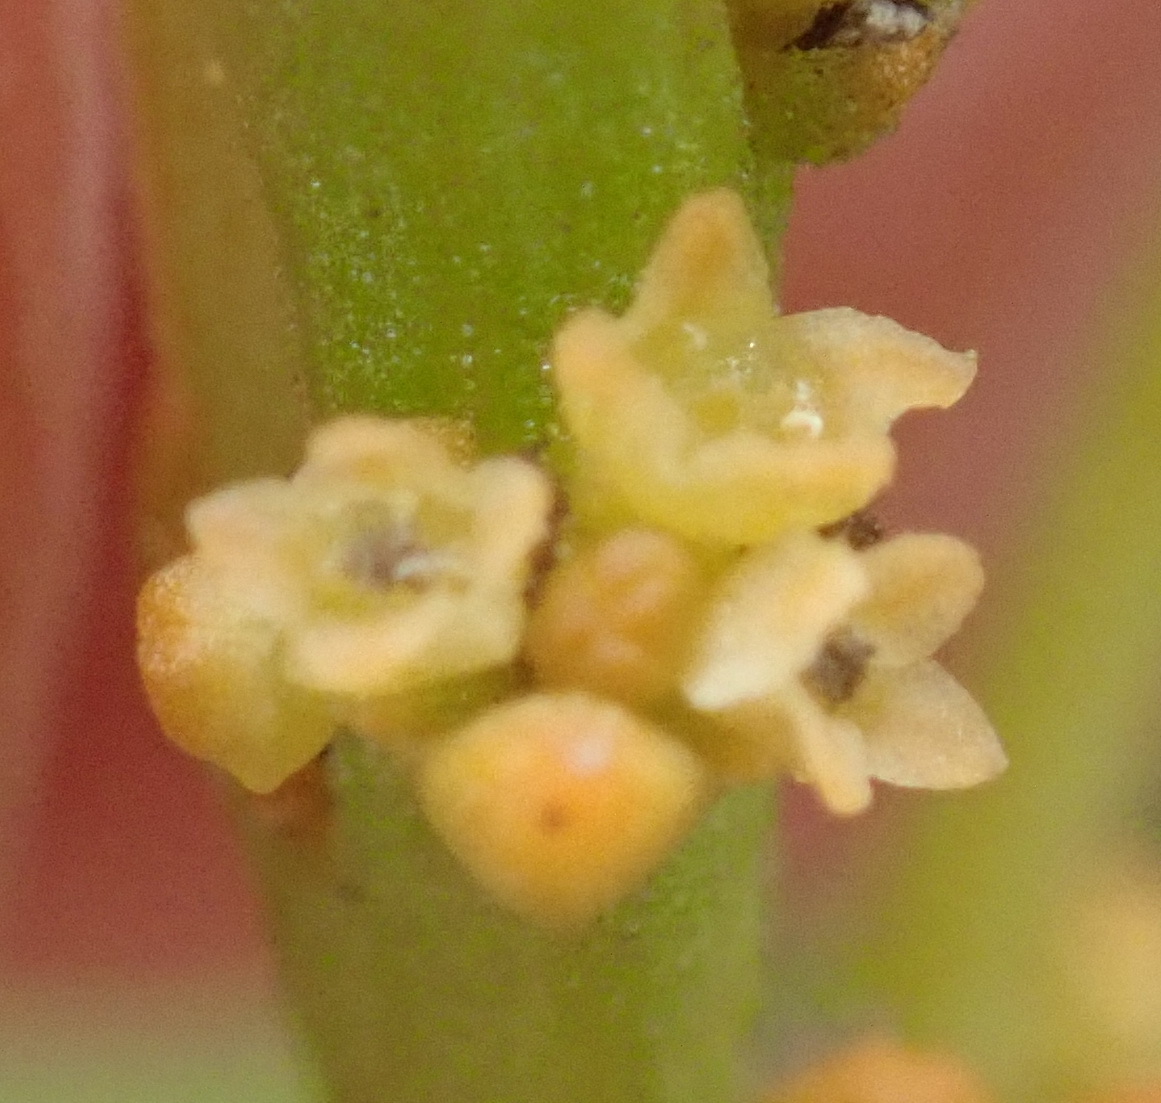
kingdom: Plantae
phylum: Tracheophyta
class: Magnoliopsida
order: Santalales
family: Thesiaceae
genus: Thesium
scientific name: Thesium fragile
